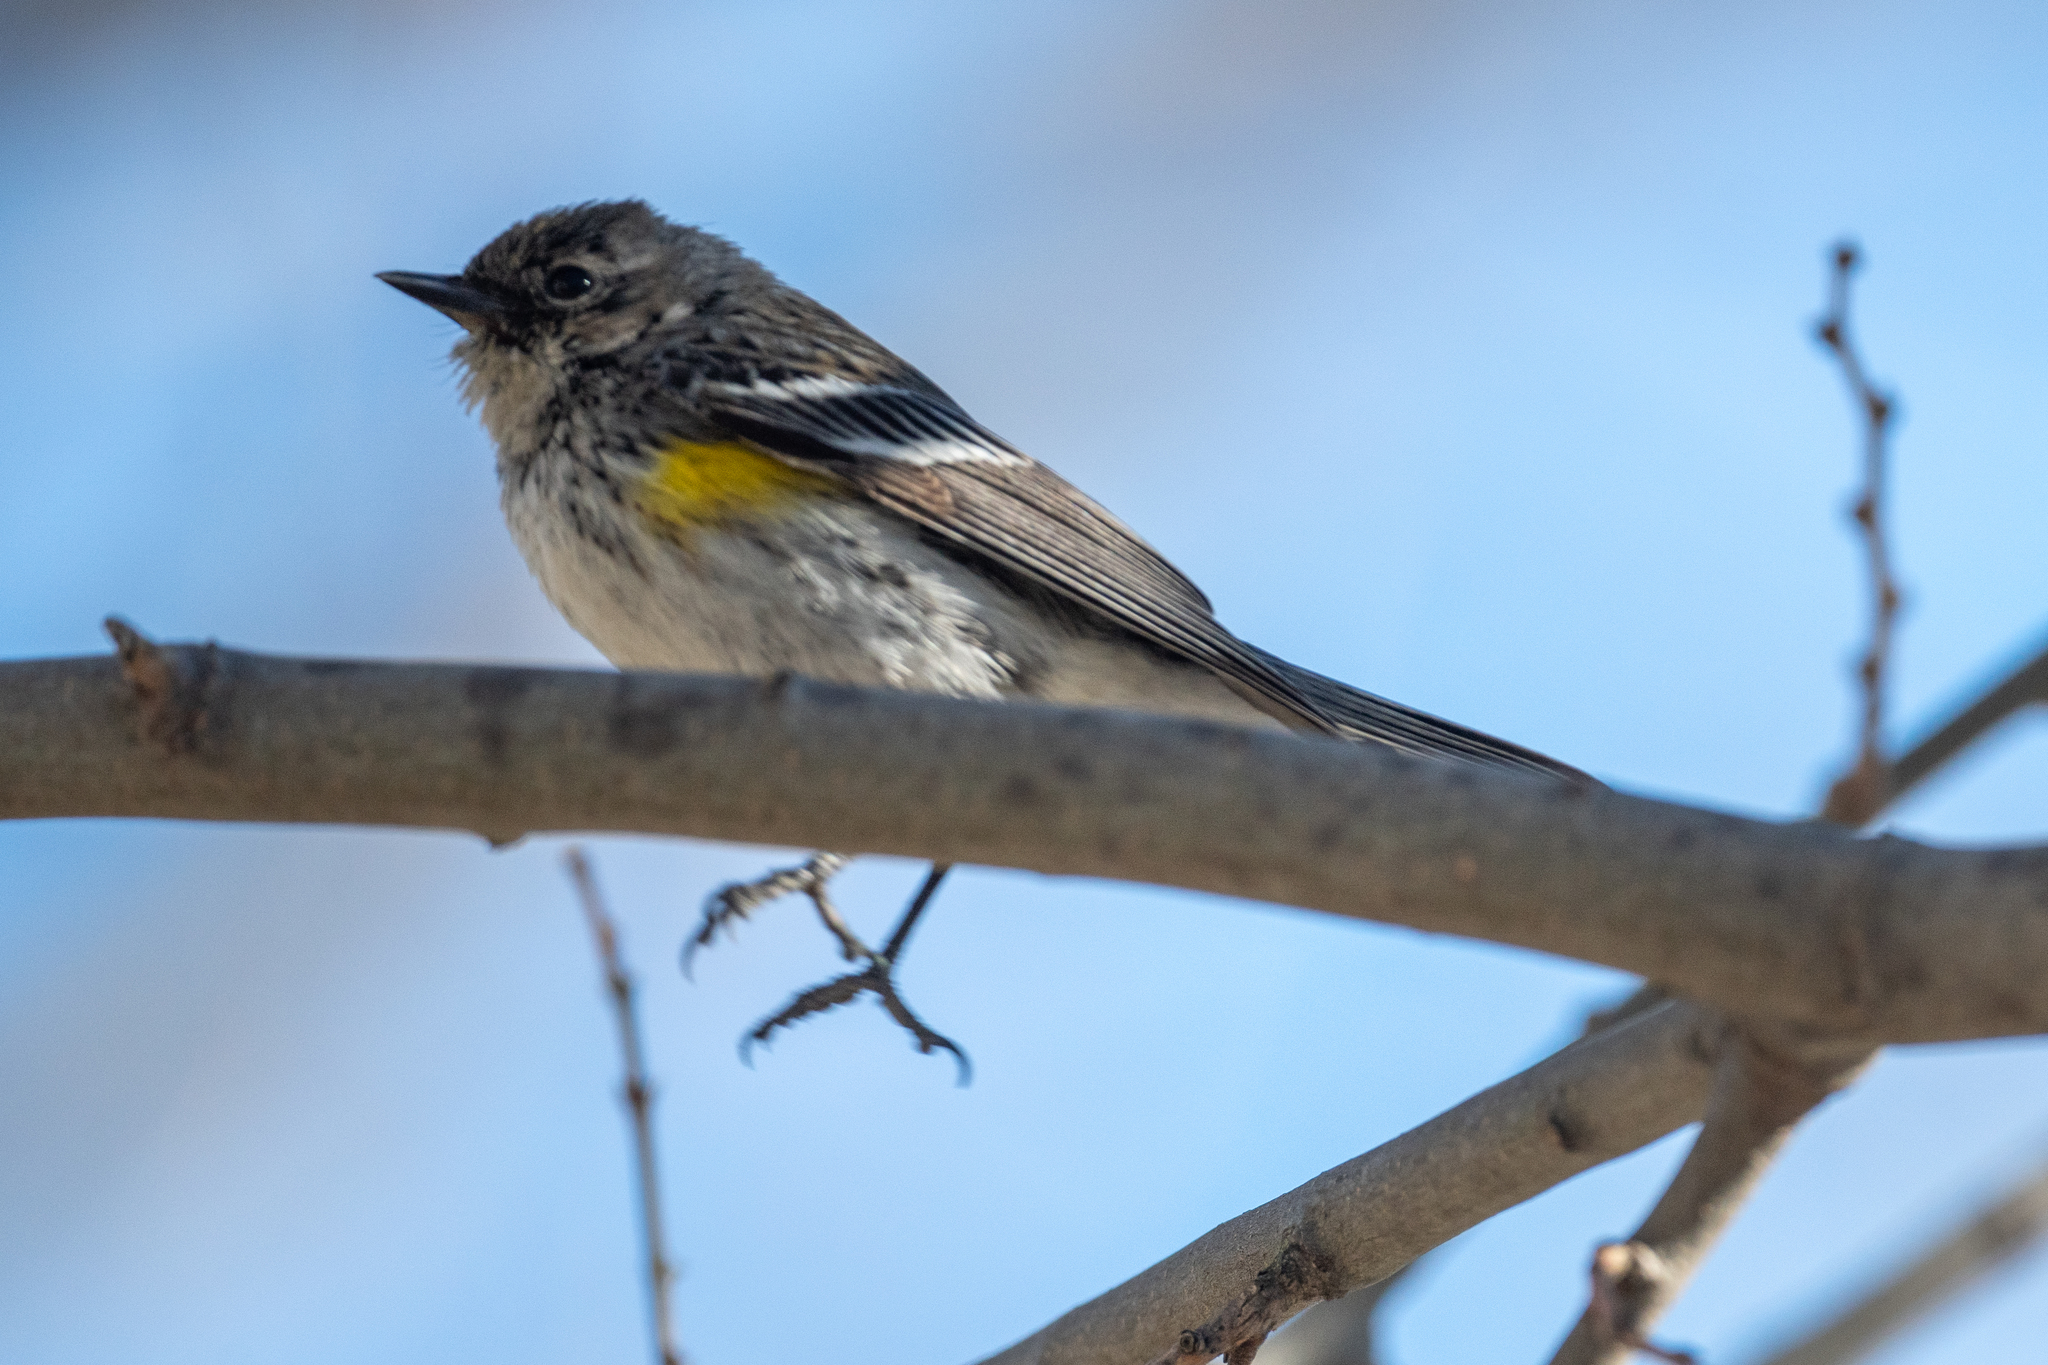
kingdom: Animalia
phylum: Chordata
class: Aves
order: Passeriformes
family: Parulidae
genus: Setophaga
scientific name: Setophaga coronata
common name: Myrtle warbler
